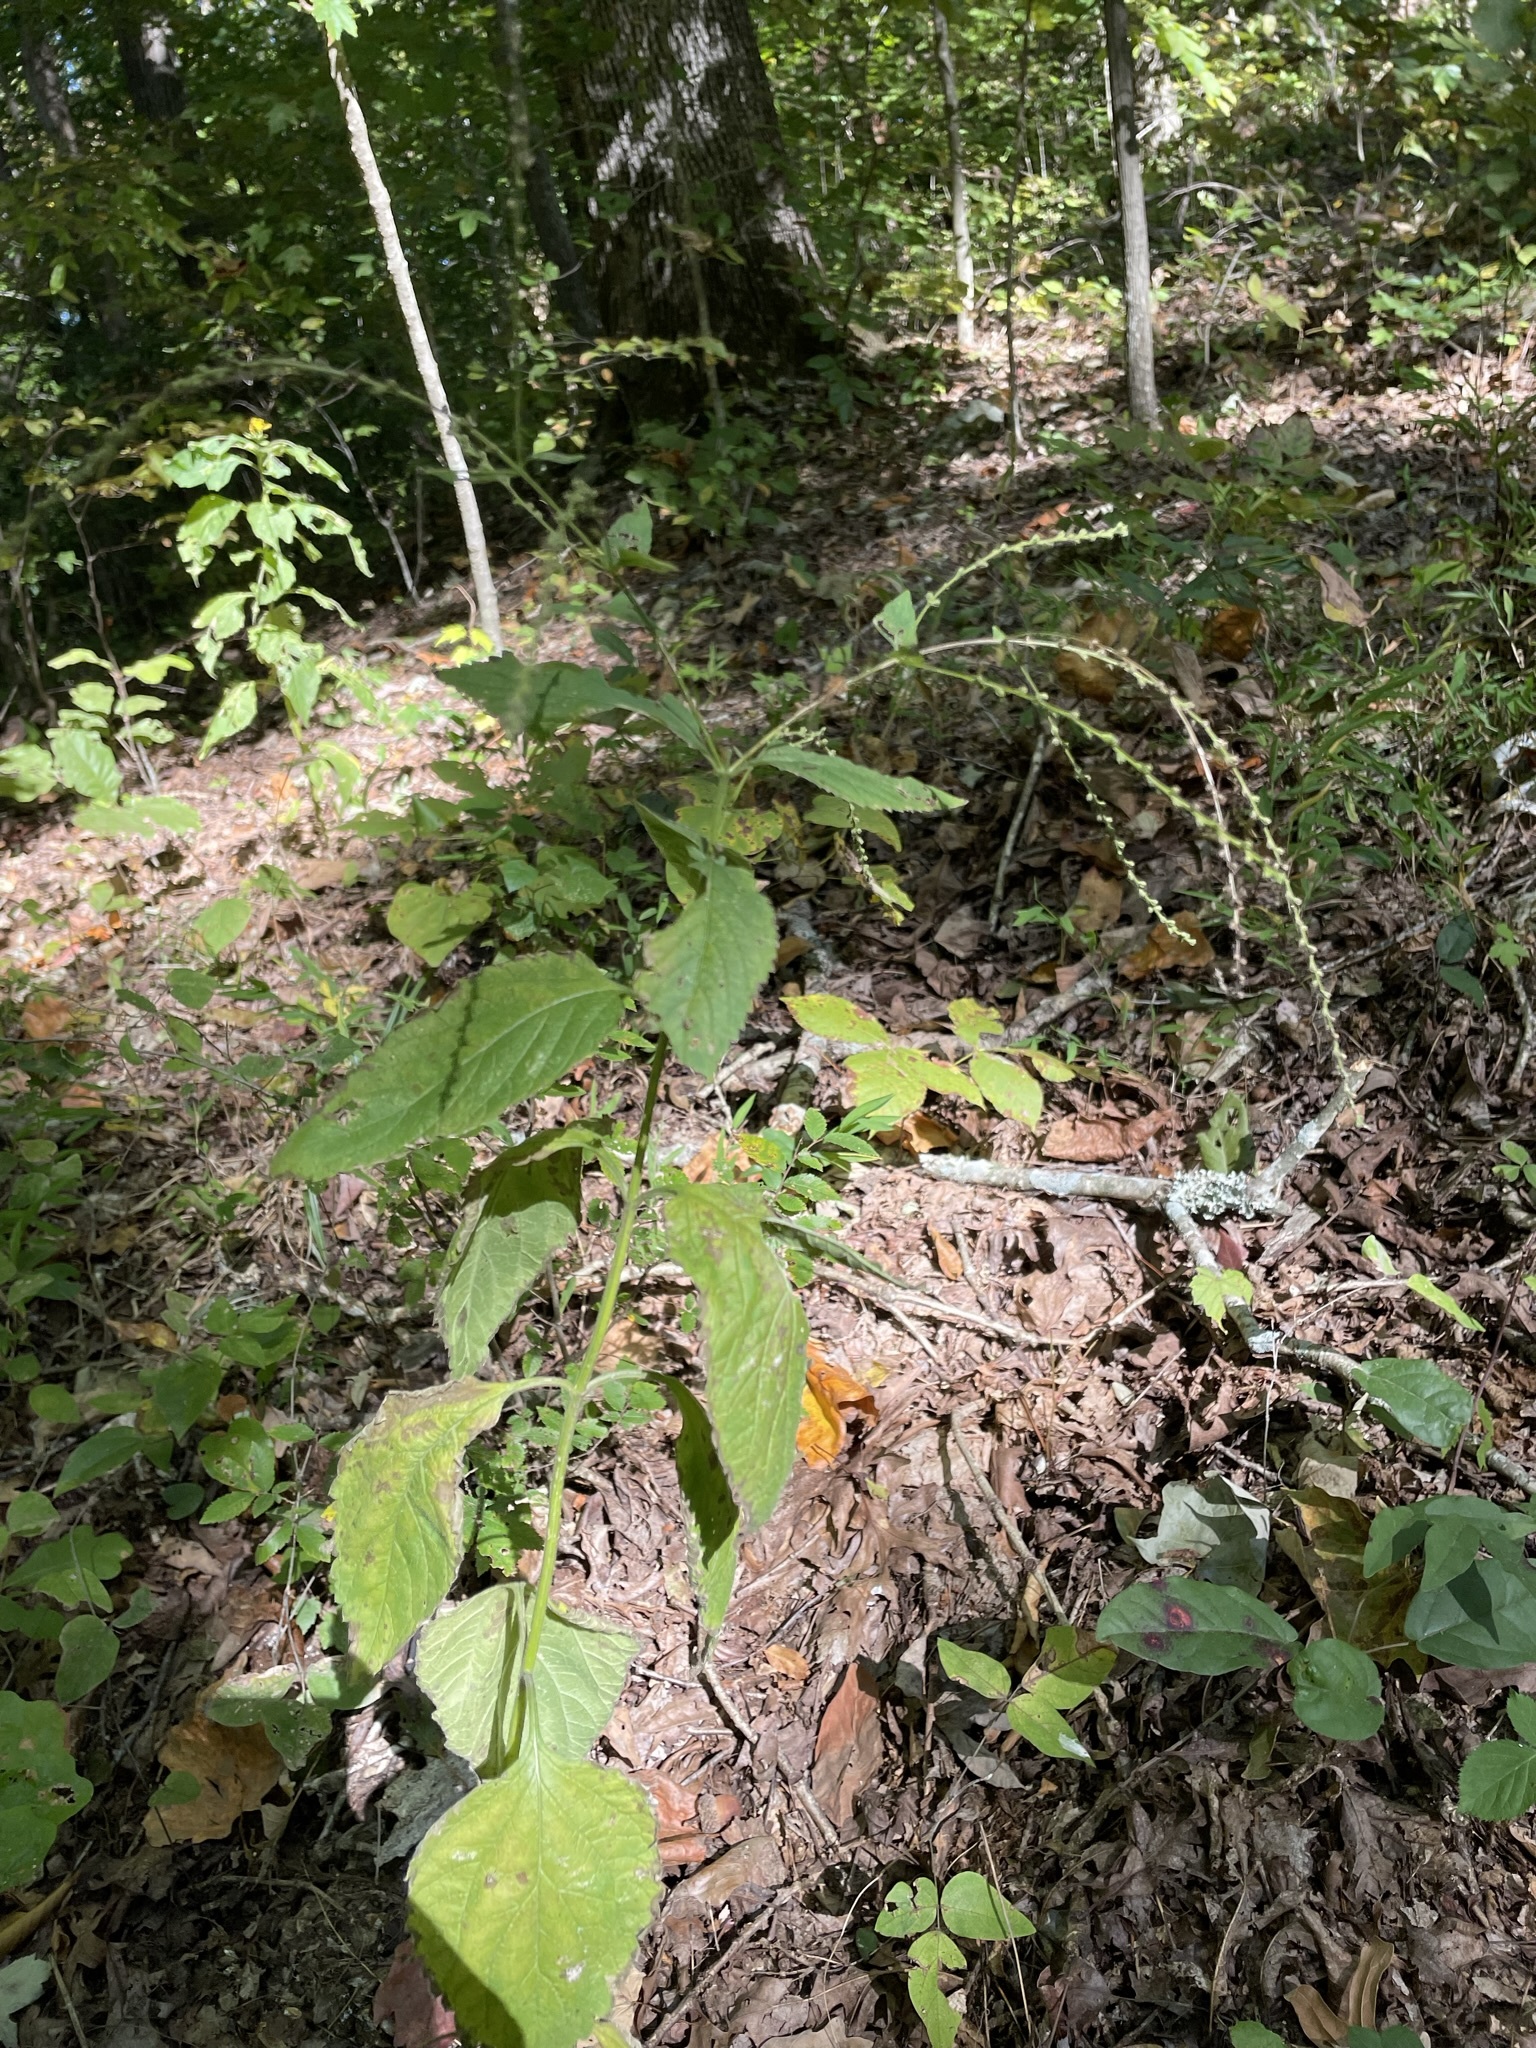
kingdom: Plantae
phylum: Tracheophyta
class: Magnoliopsida
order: Lamiales
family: Verbenaceae
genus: Verbena
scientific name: Verbena urticifolia
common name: Nettle-leaved vervain
